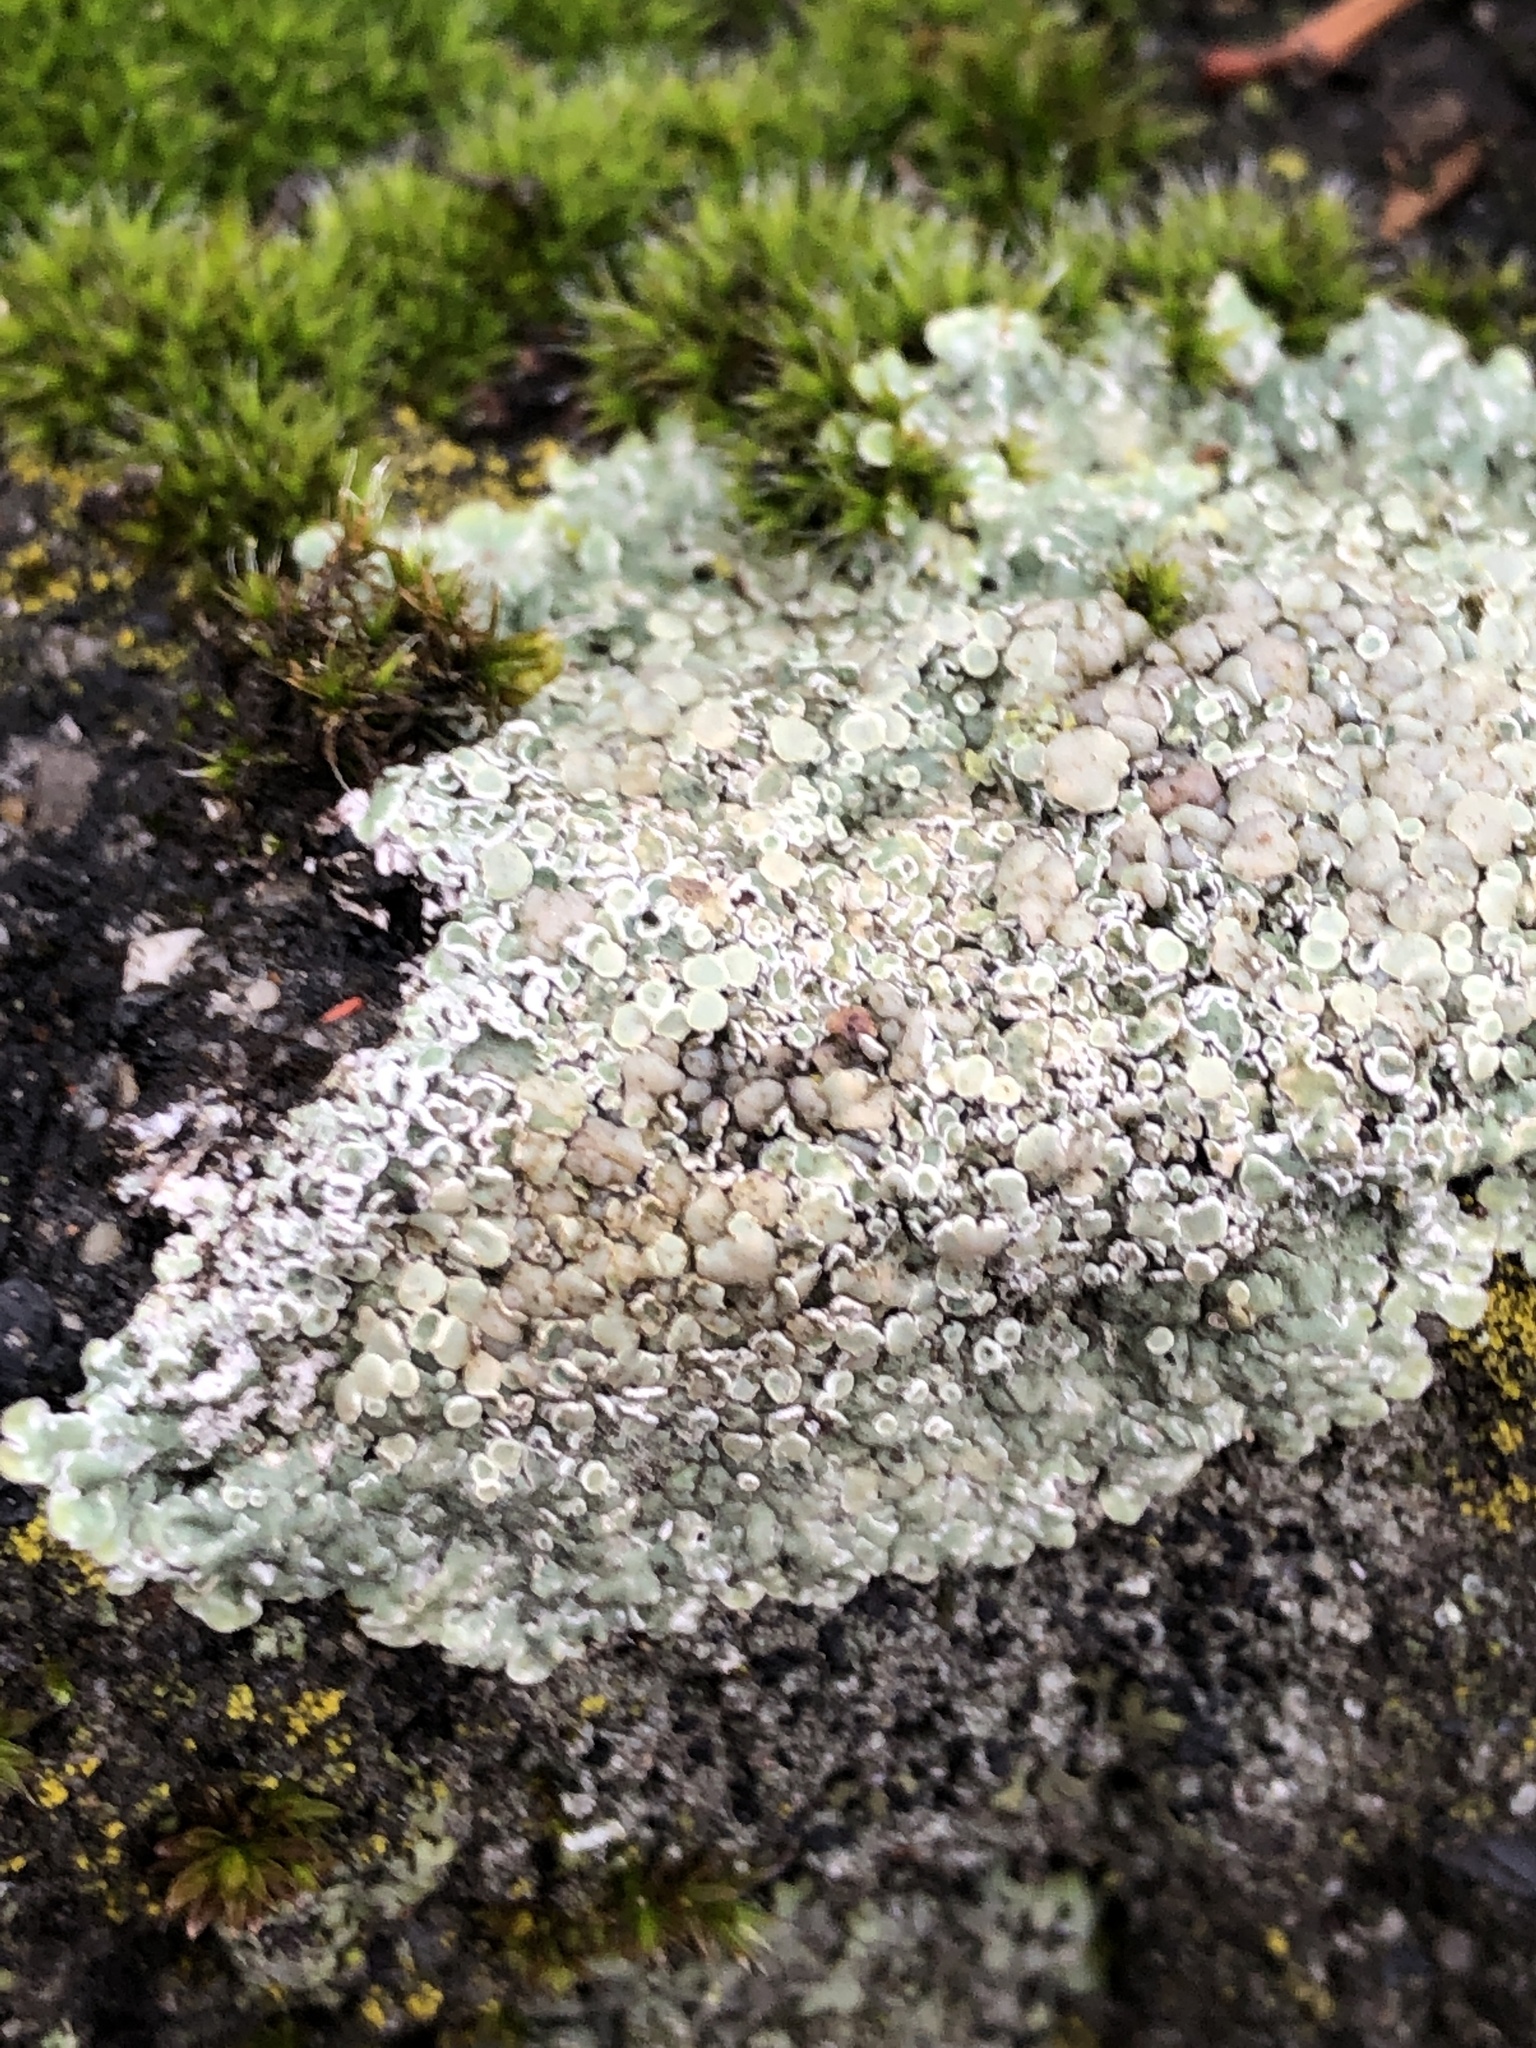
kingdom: Fungi
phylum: Ascomycota
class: Lecanoromycetes
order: Lecanorales
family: Lecanoraceae
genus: Protoparmeliopsis
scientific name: Protoparmeliopsis muralis
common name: Stonewall rim lichen
